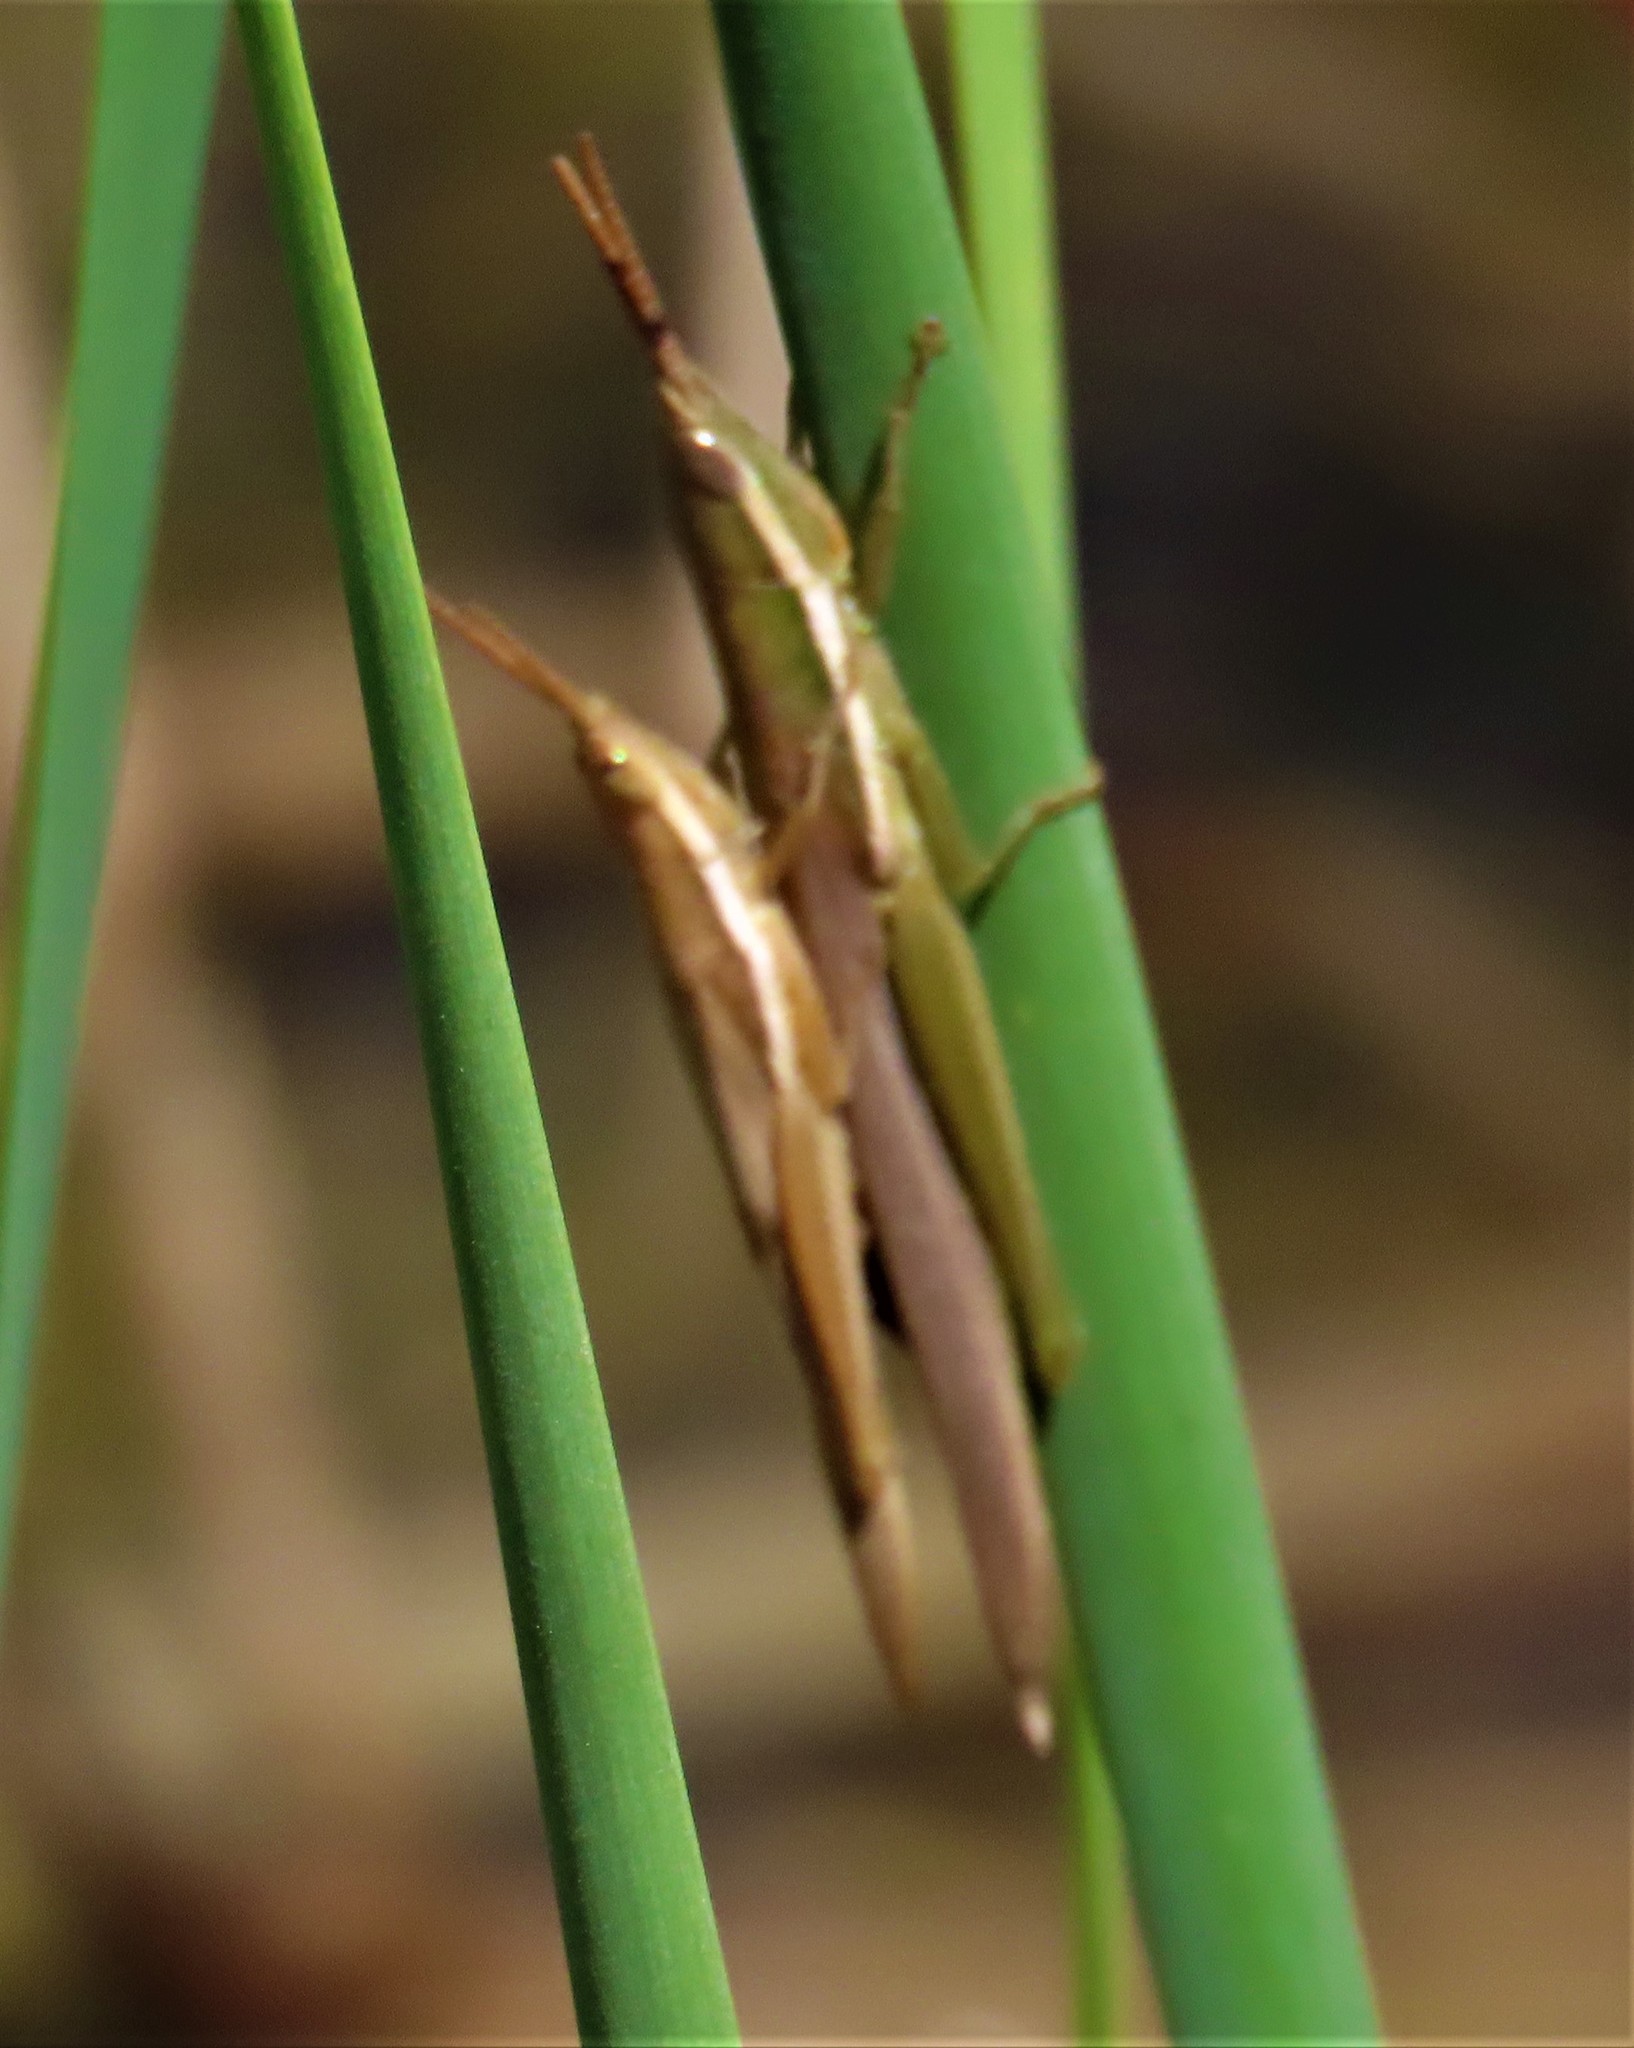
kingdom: Animalia
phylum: Arthropoda
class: Insecta
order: Orthoptera
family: Acrididae
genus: Leptysma
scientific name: Leptysma marginicollis
